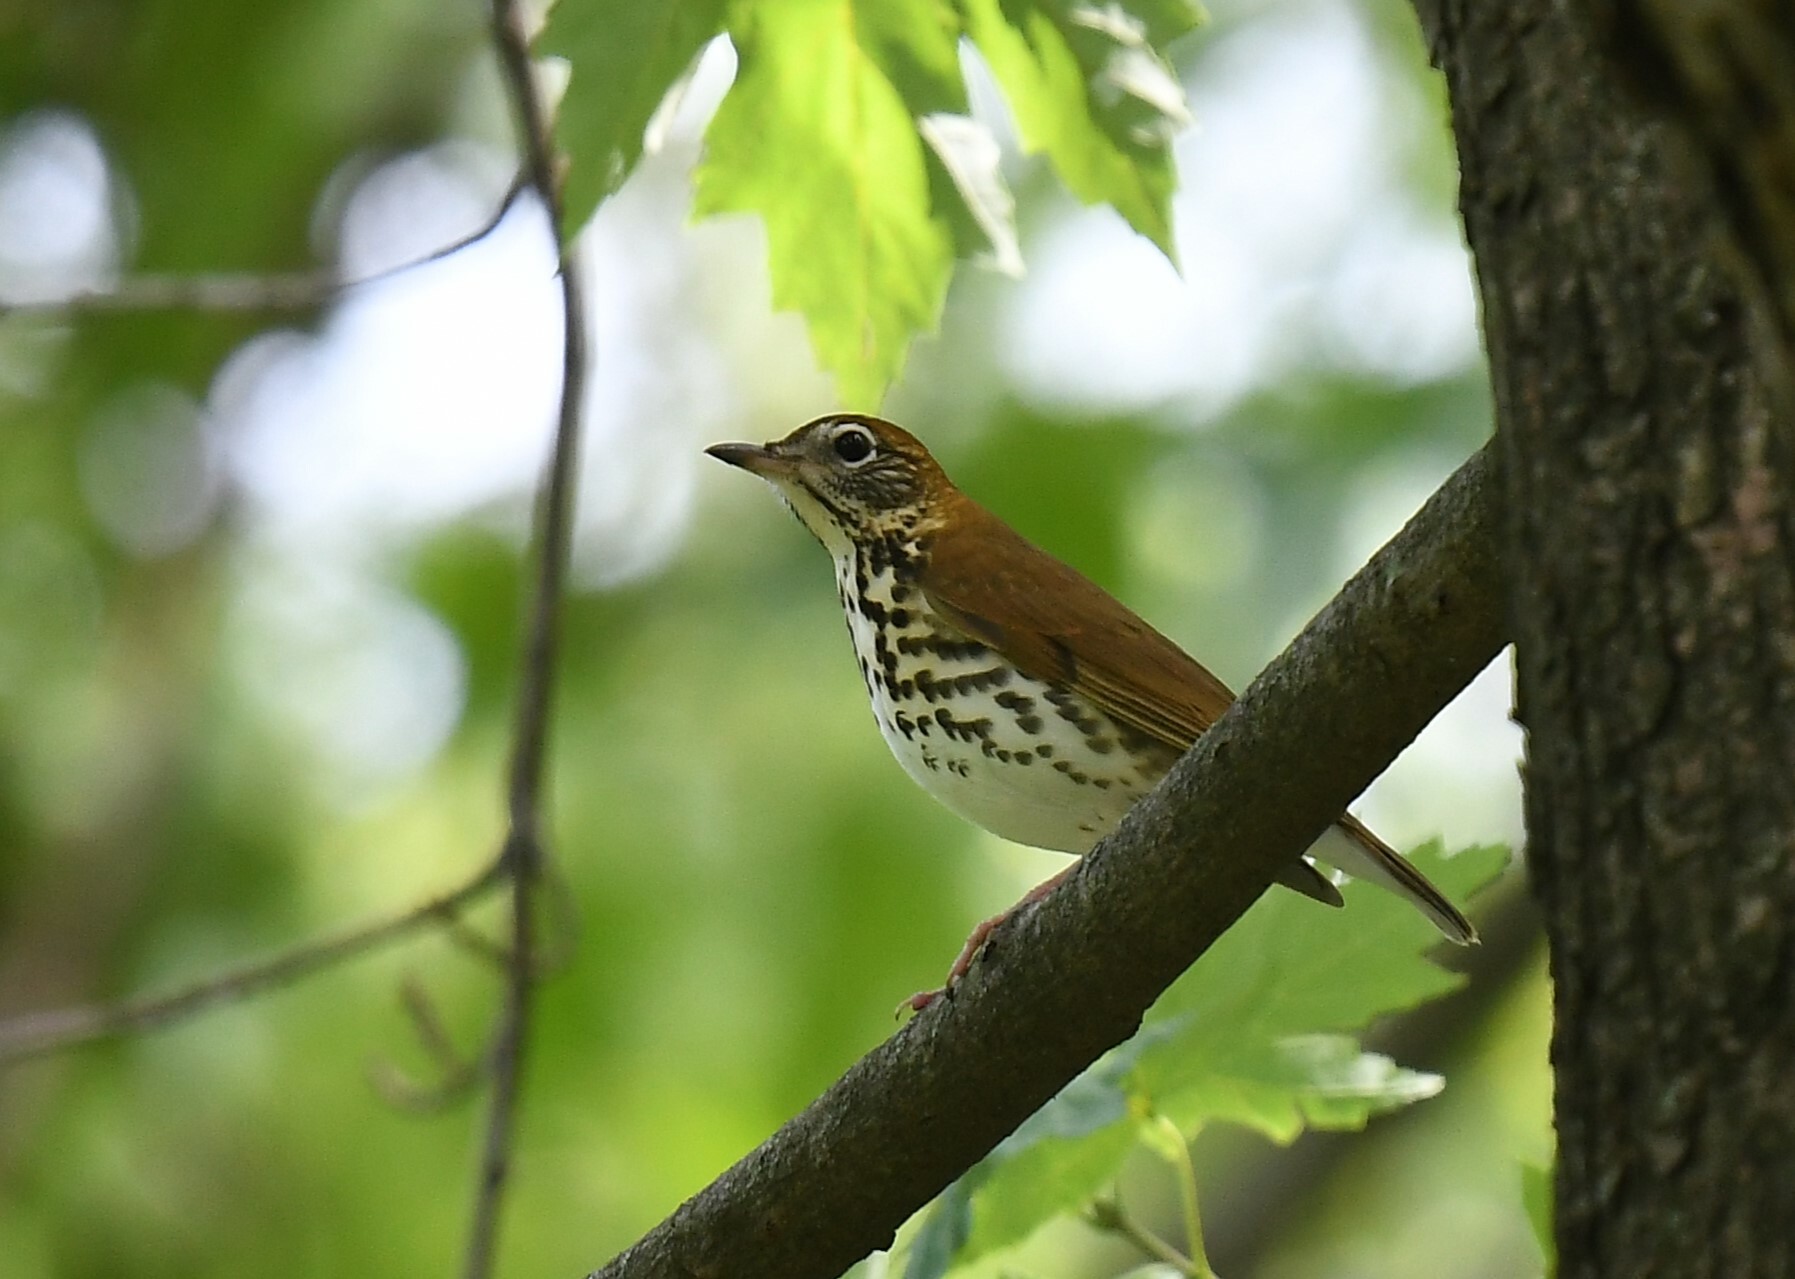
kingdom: Animalia
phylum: Chordata
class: Aves
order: Passeriformes
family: Turdidae
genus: Hylocichla
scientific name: Hylocichla mustelina
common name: Wood thrush
